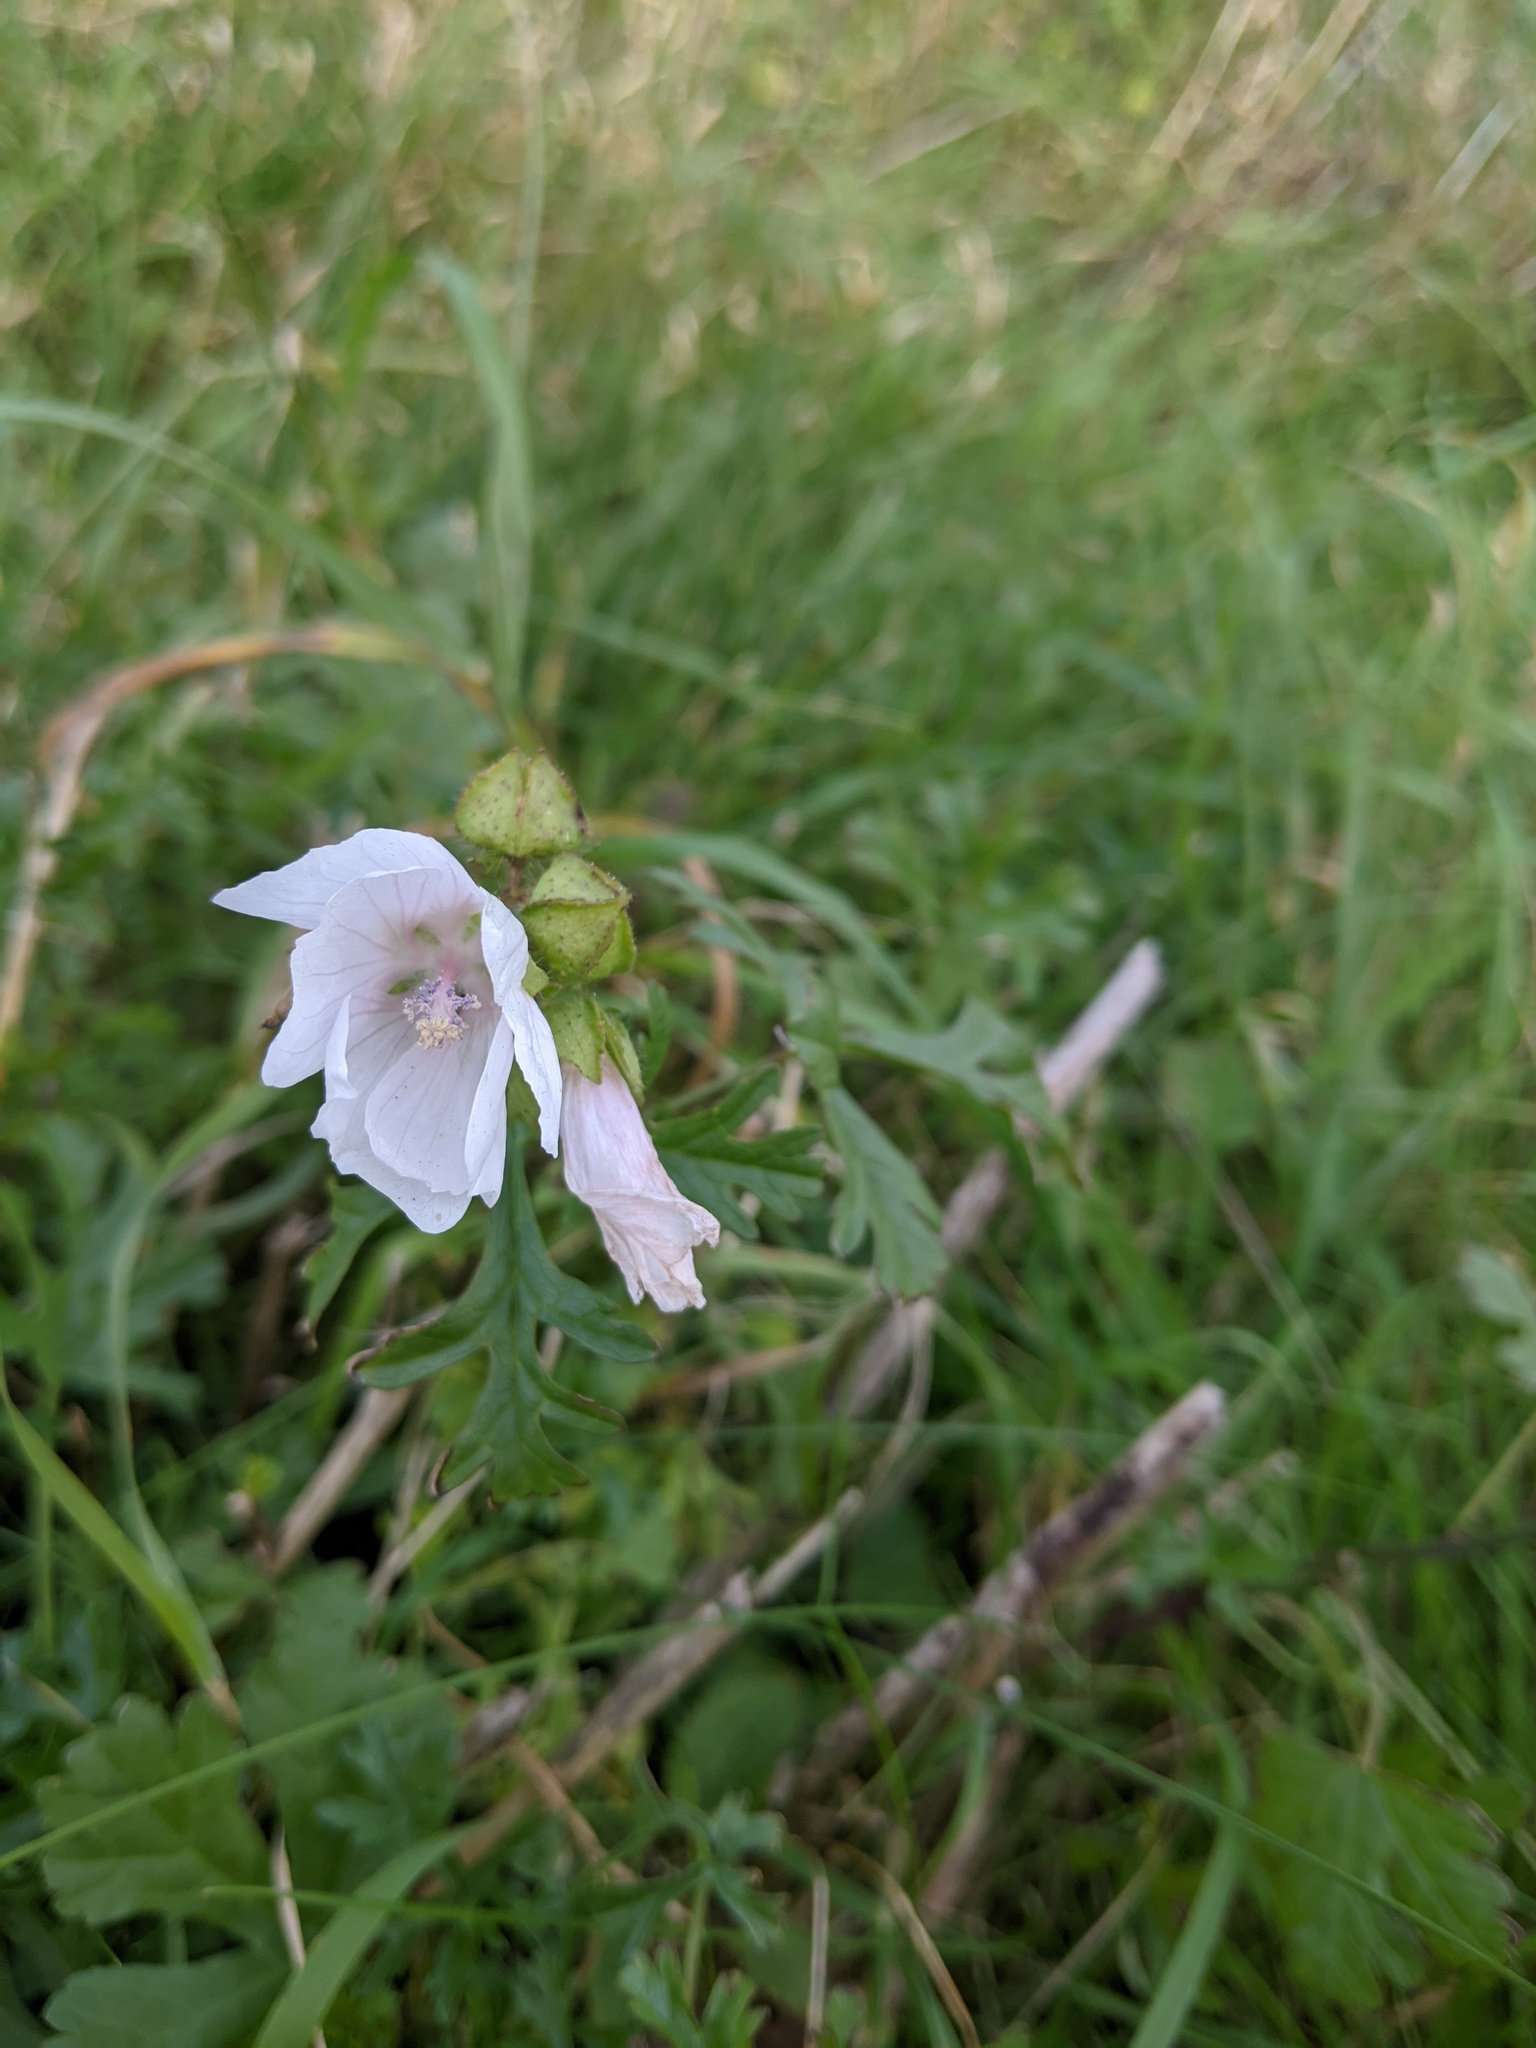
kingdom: Plantae
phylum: Tracheophyta
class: Magnoliopsida
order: Malvales
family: Malvaceae
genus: Malva
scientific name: Malva moschata
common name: Musk mallow
